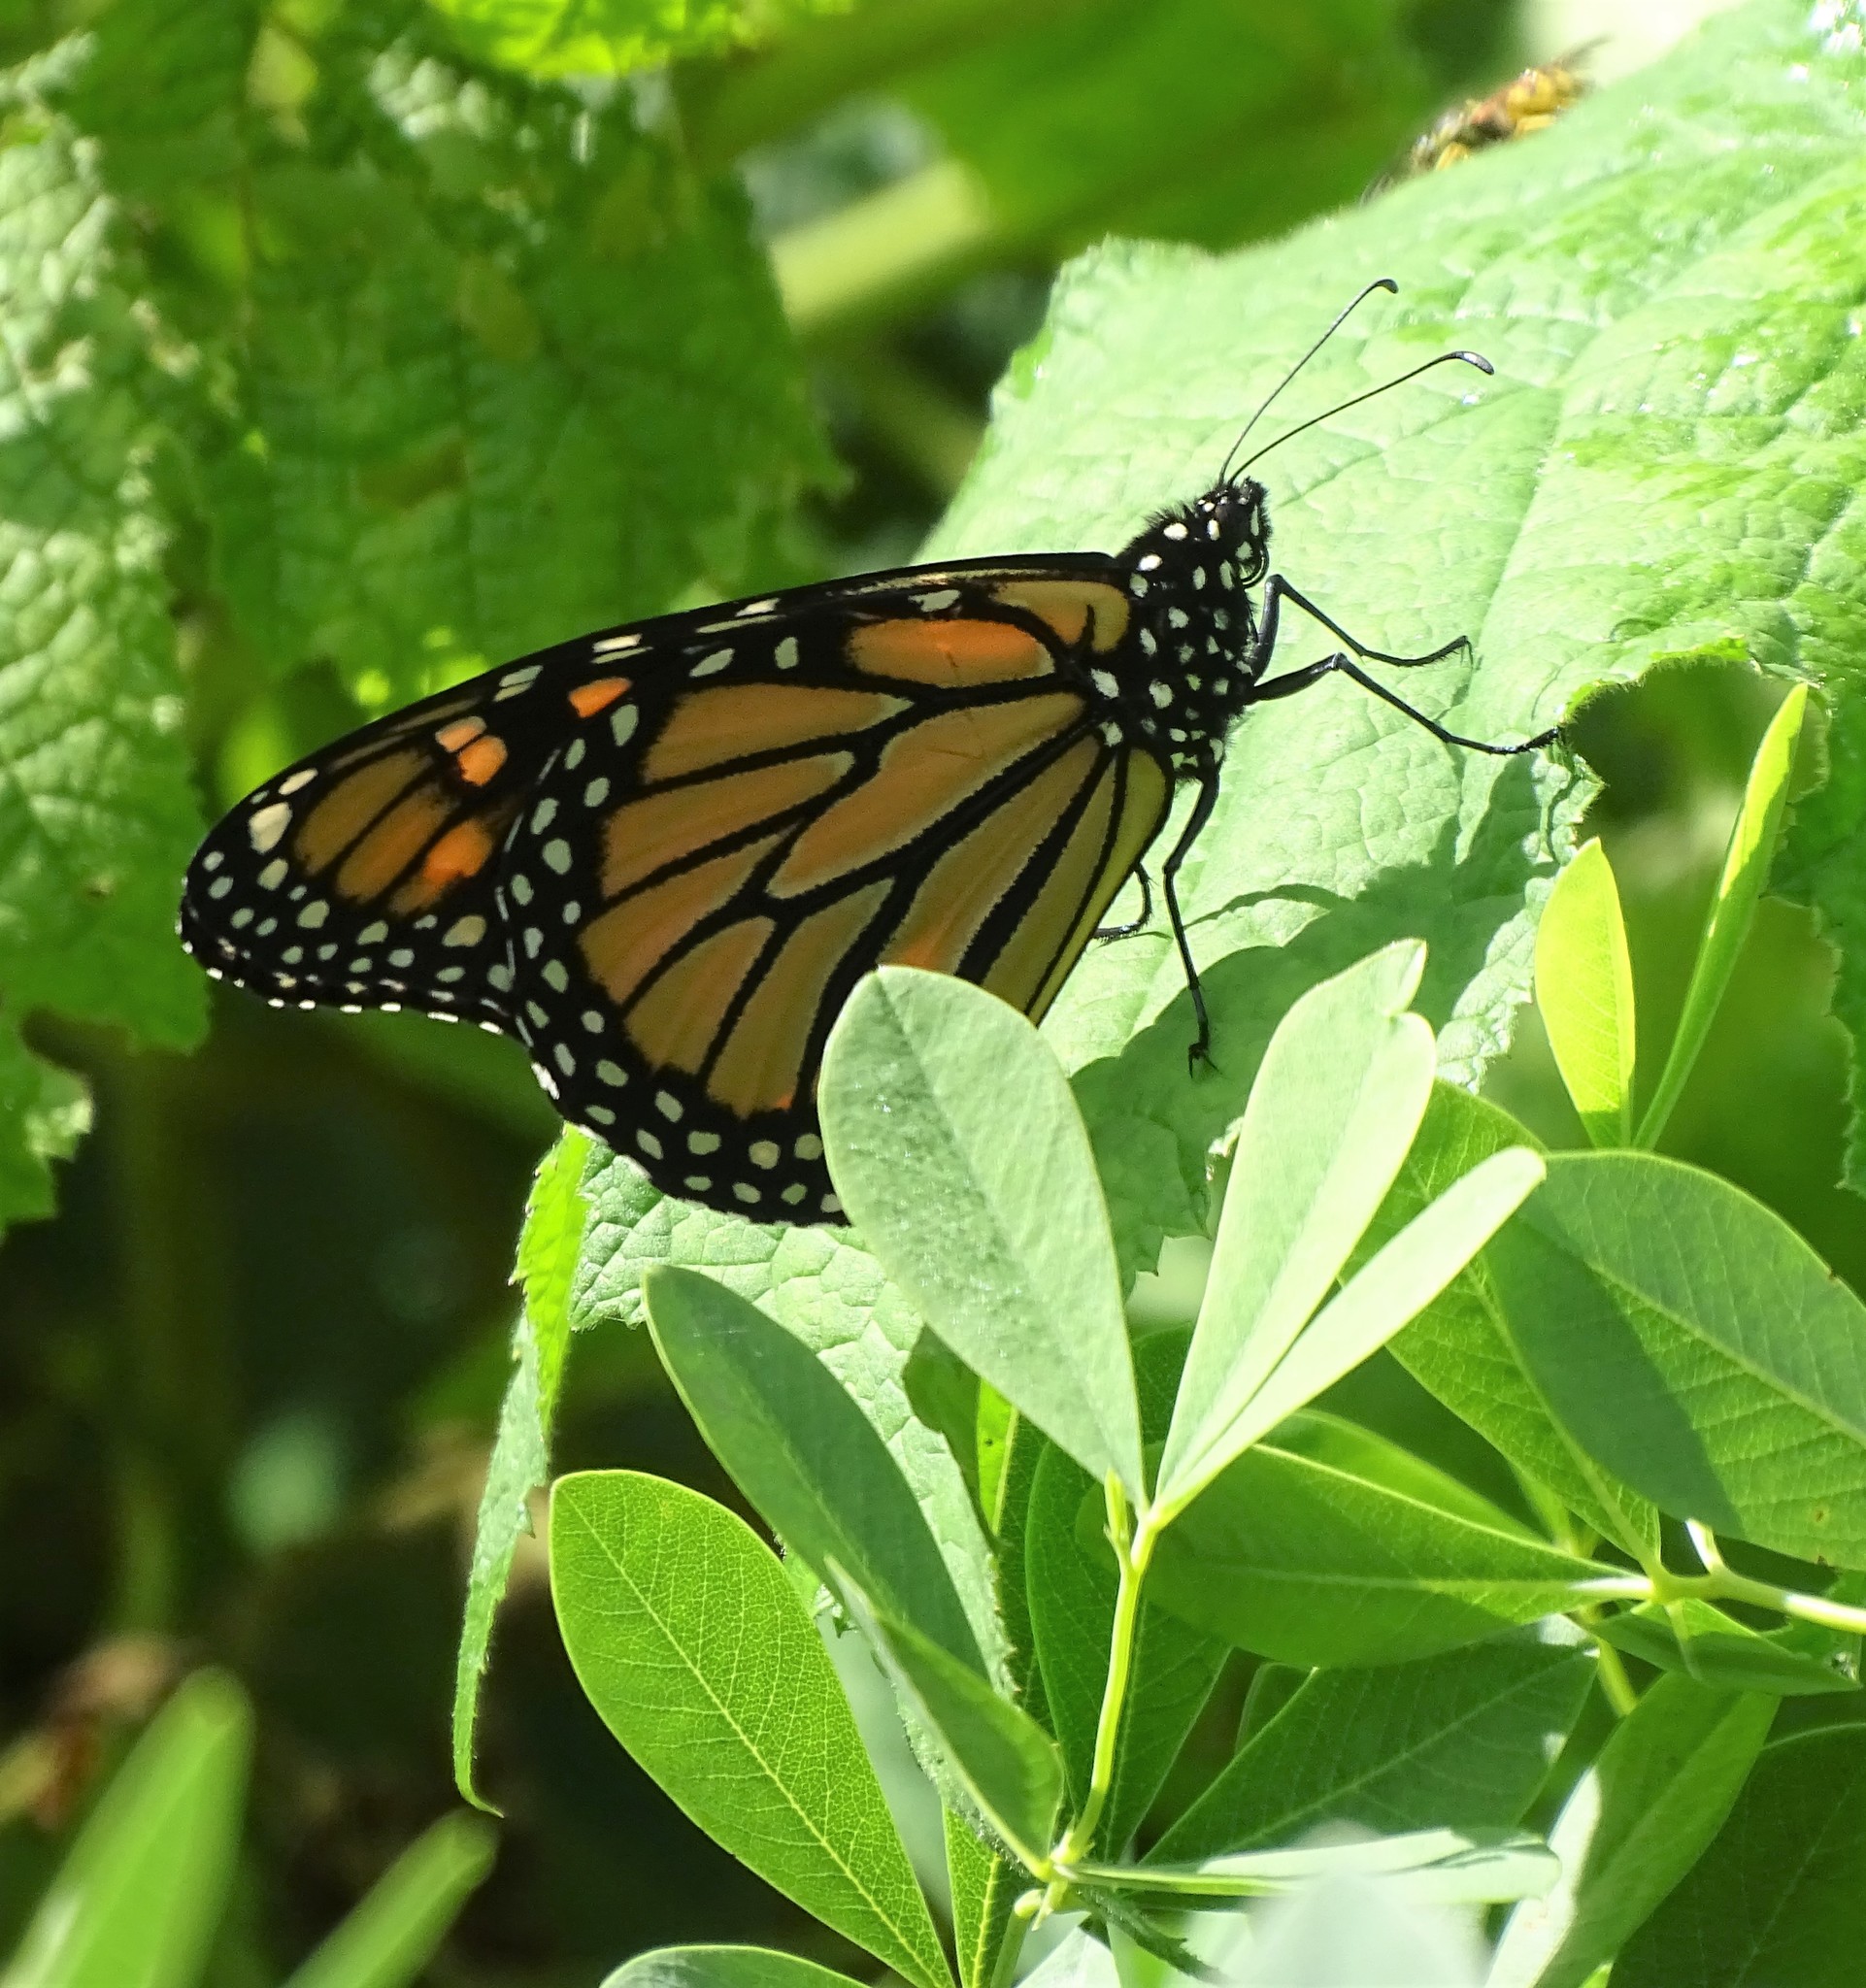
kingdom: Animalia
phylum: Arthropoda
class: Insecta
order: Lepidoptera
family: Nymphalidae
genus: Danaus
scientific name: Danaus plexippus
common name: Monarch
